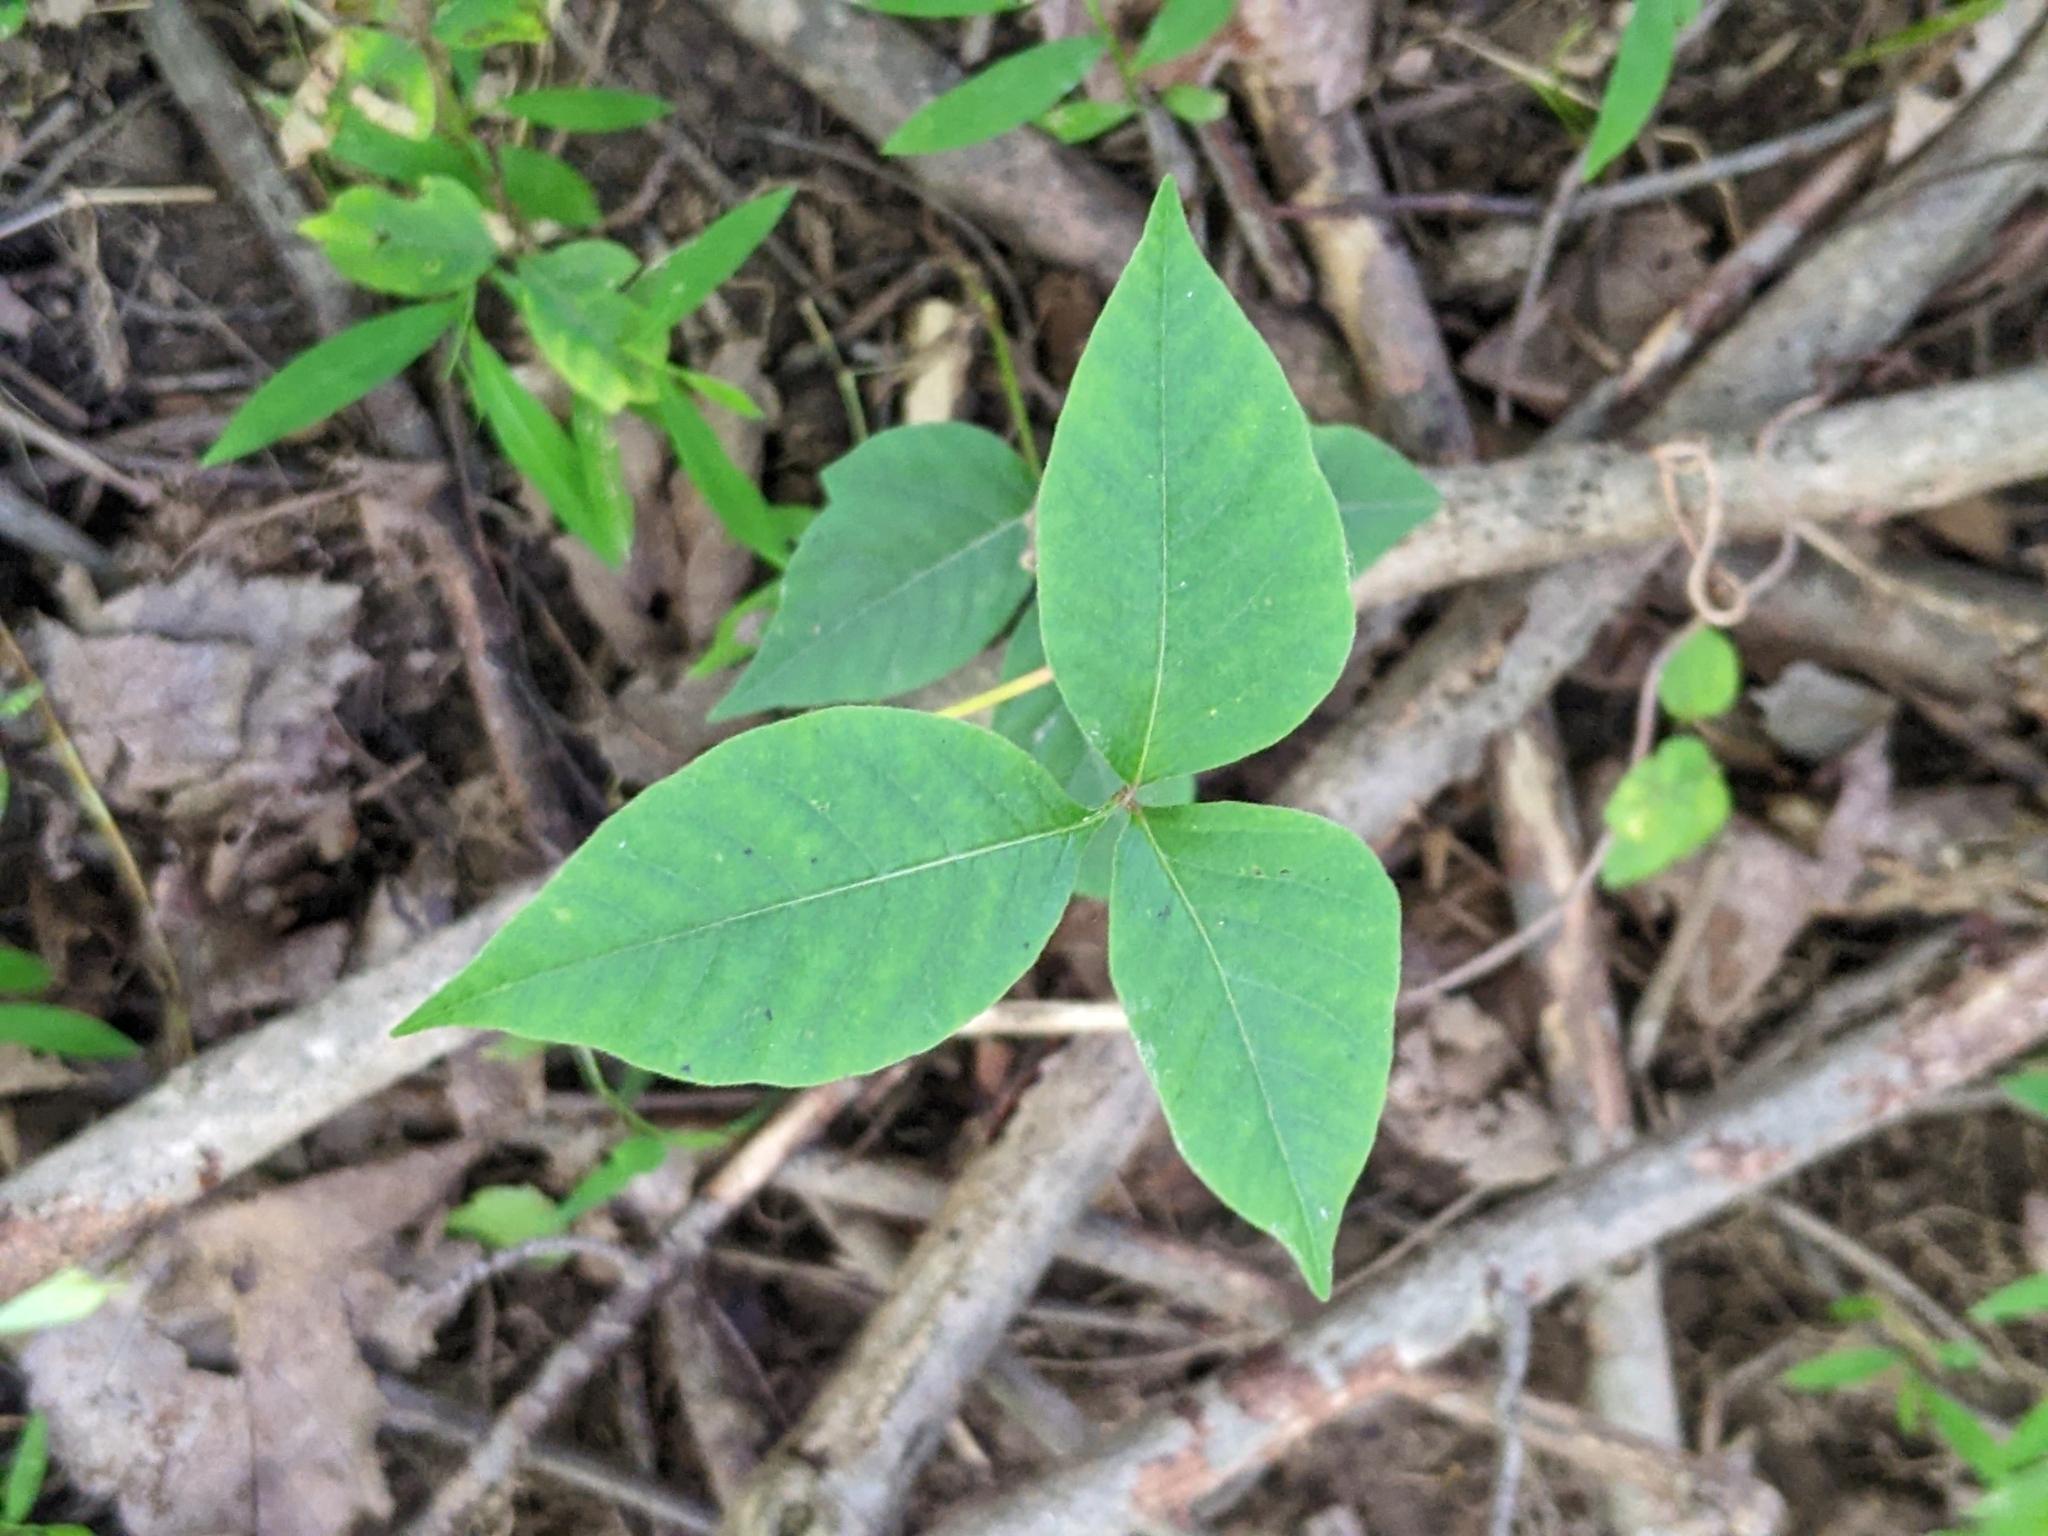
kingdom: Plantae
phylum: Tracheophyta
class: Magnoliopsida
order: Sapindales
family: Anacardiaceae
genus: Toxicodendron
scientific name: Toxicodendron radicans
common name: Poison ivy
